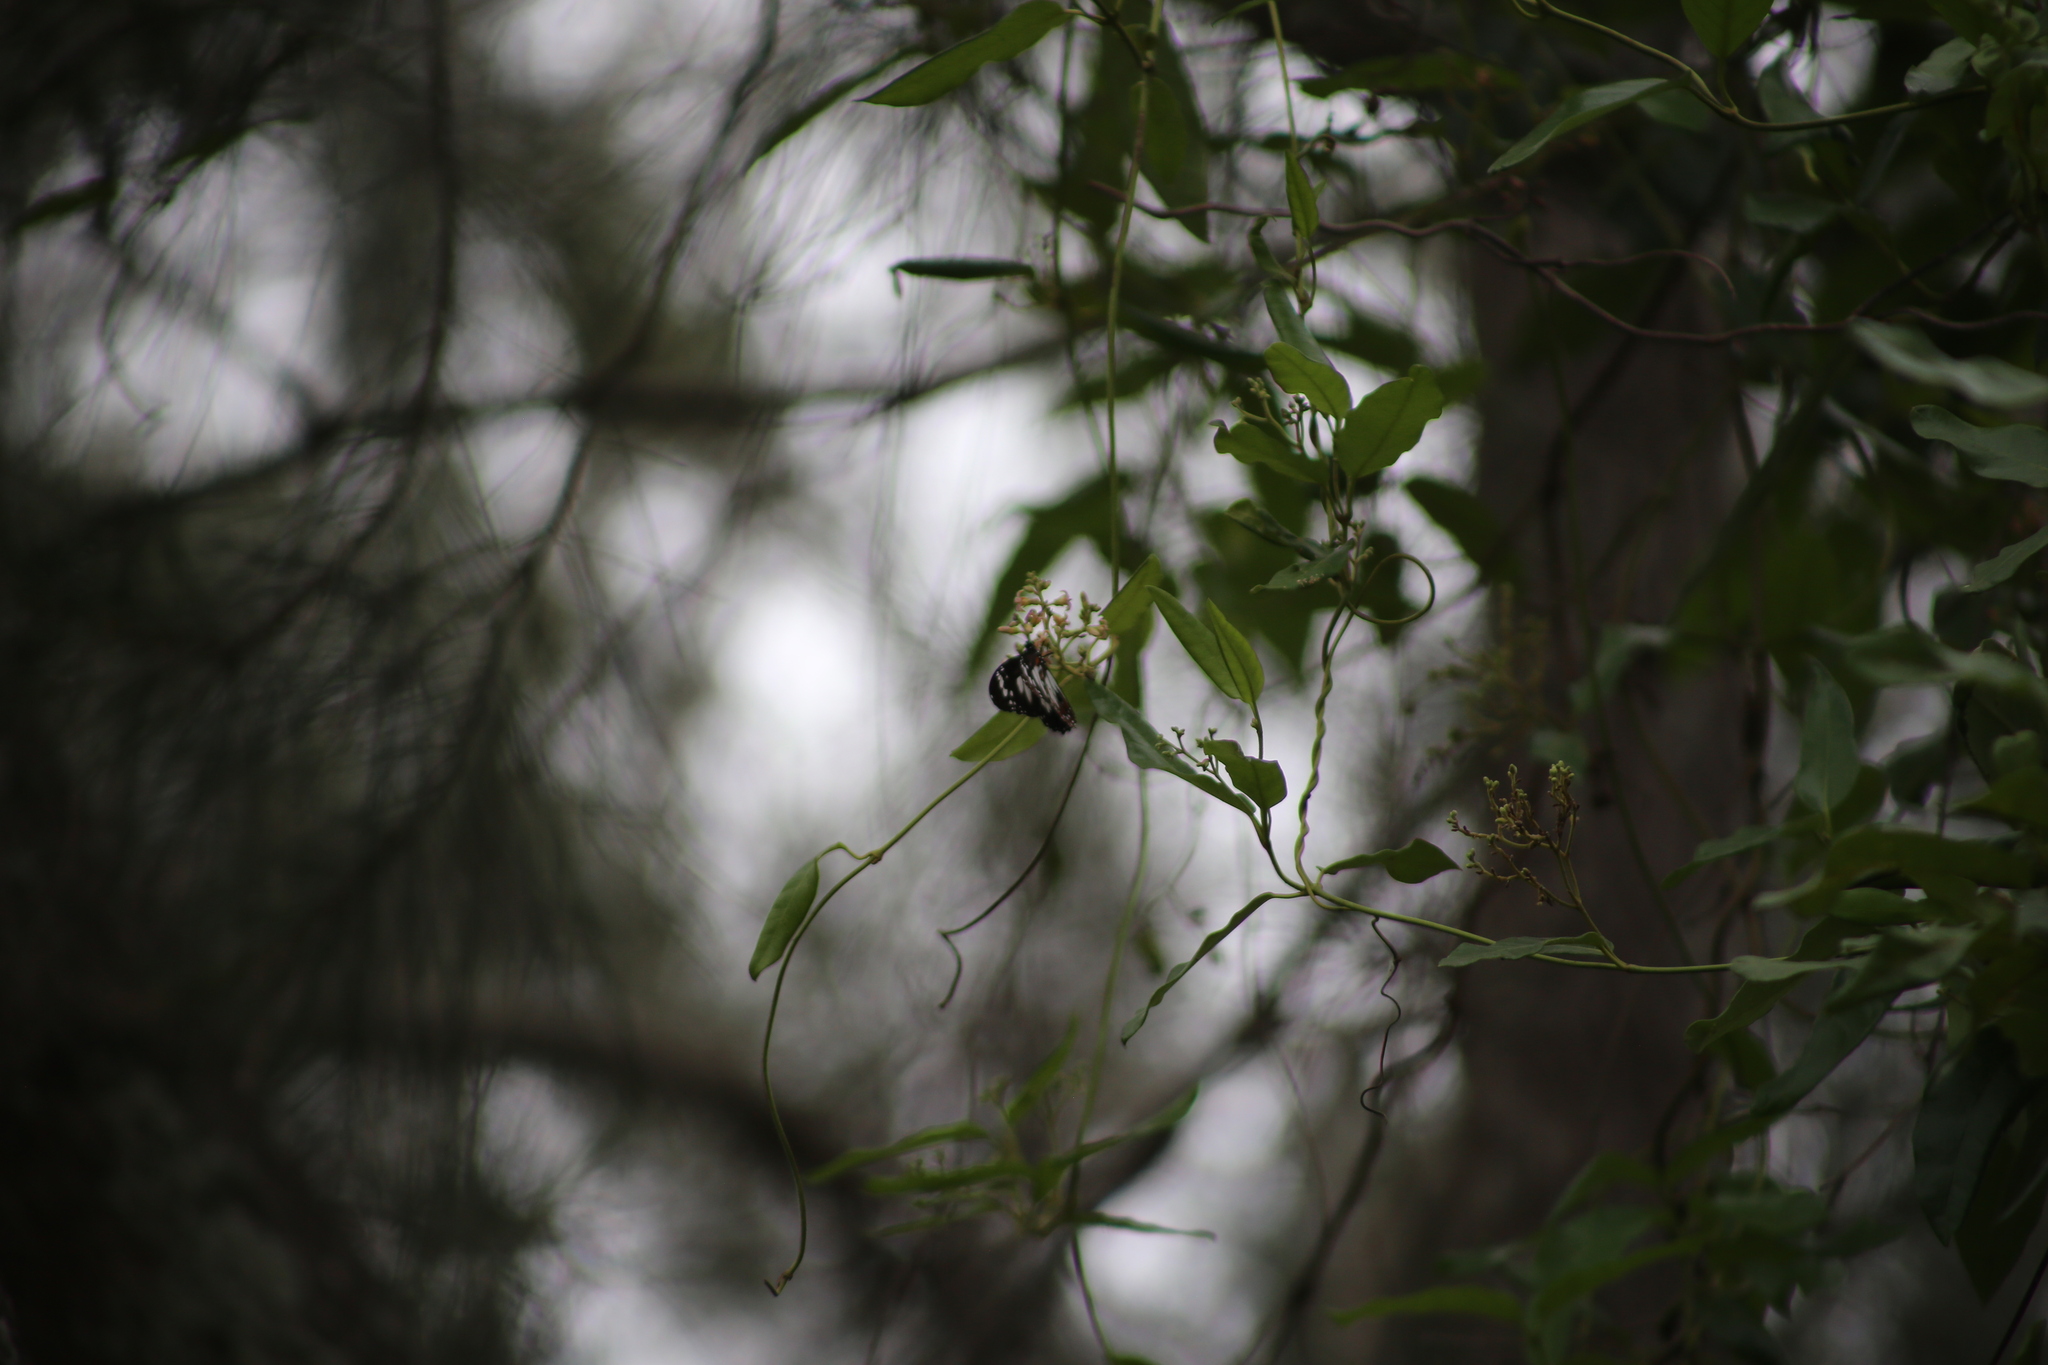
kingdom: Animalia
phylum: Arthropoda
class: Insecta
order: Lepidoptera
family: Nymphalidae
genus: Danaus
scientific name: Danaus affinis
